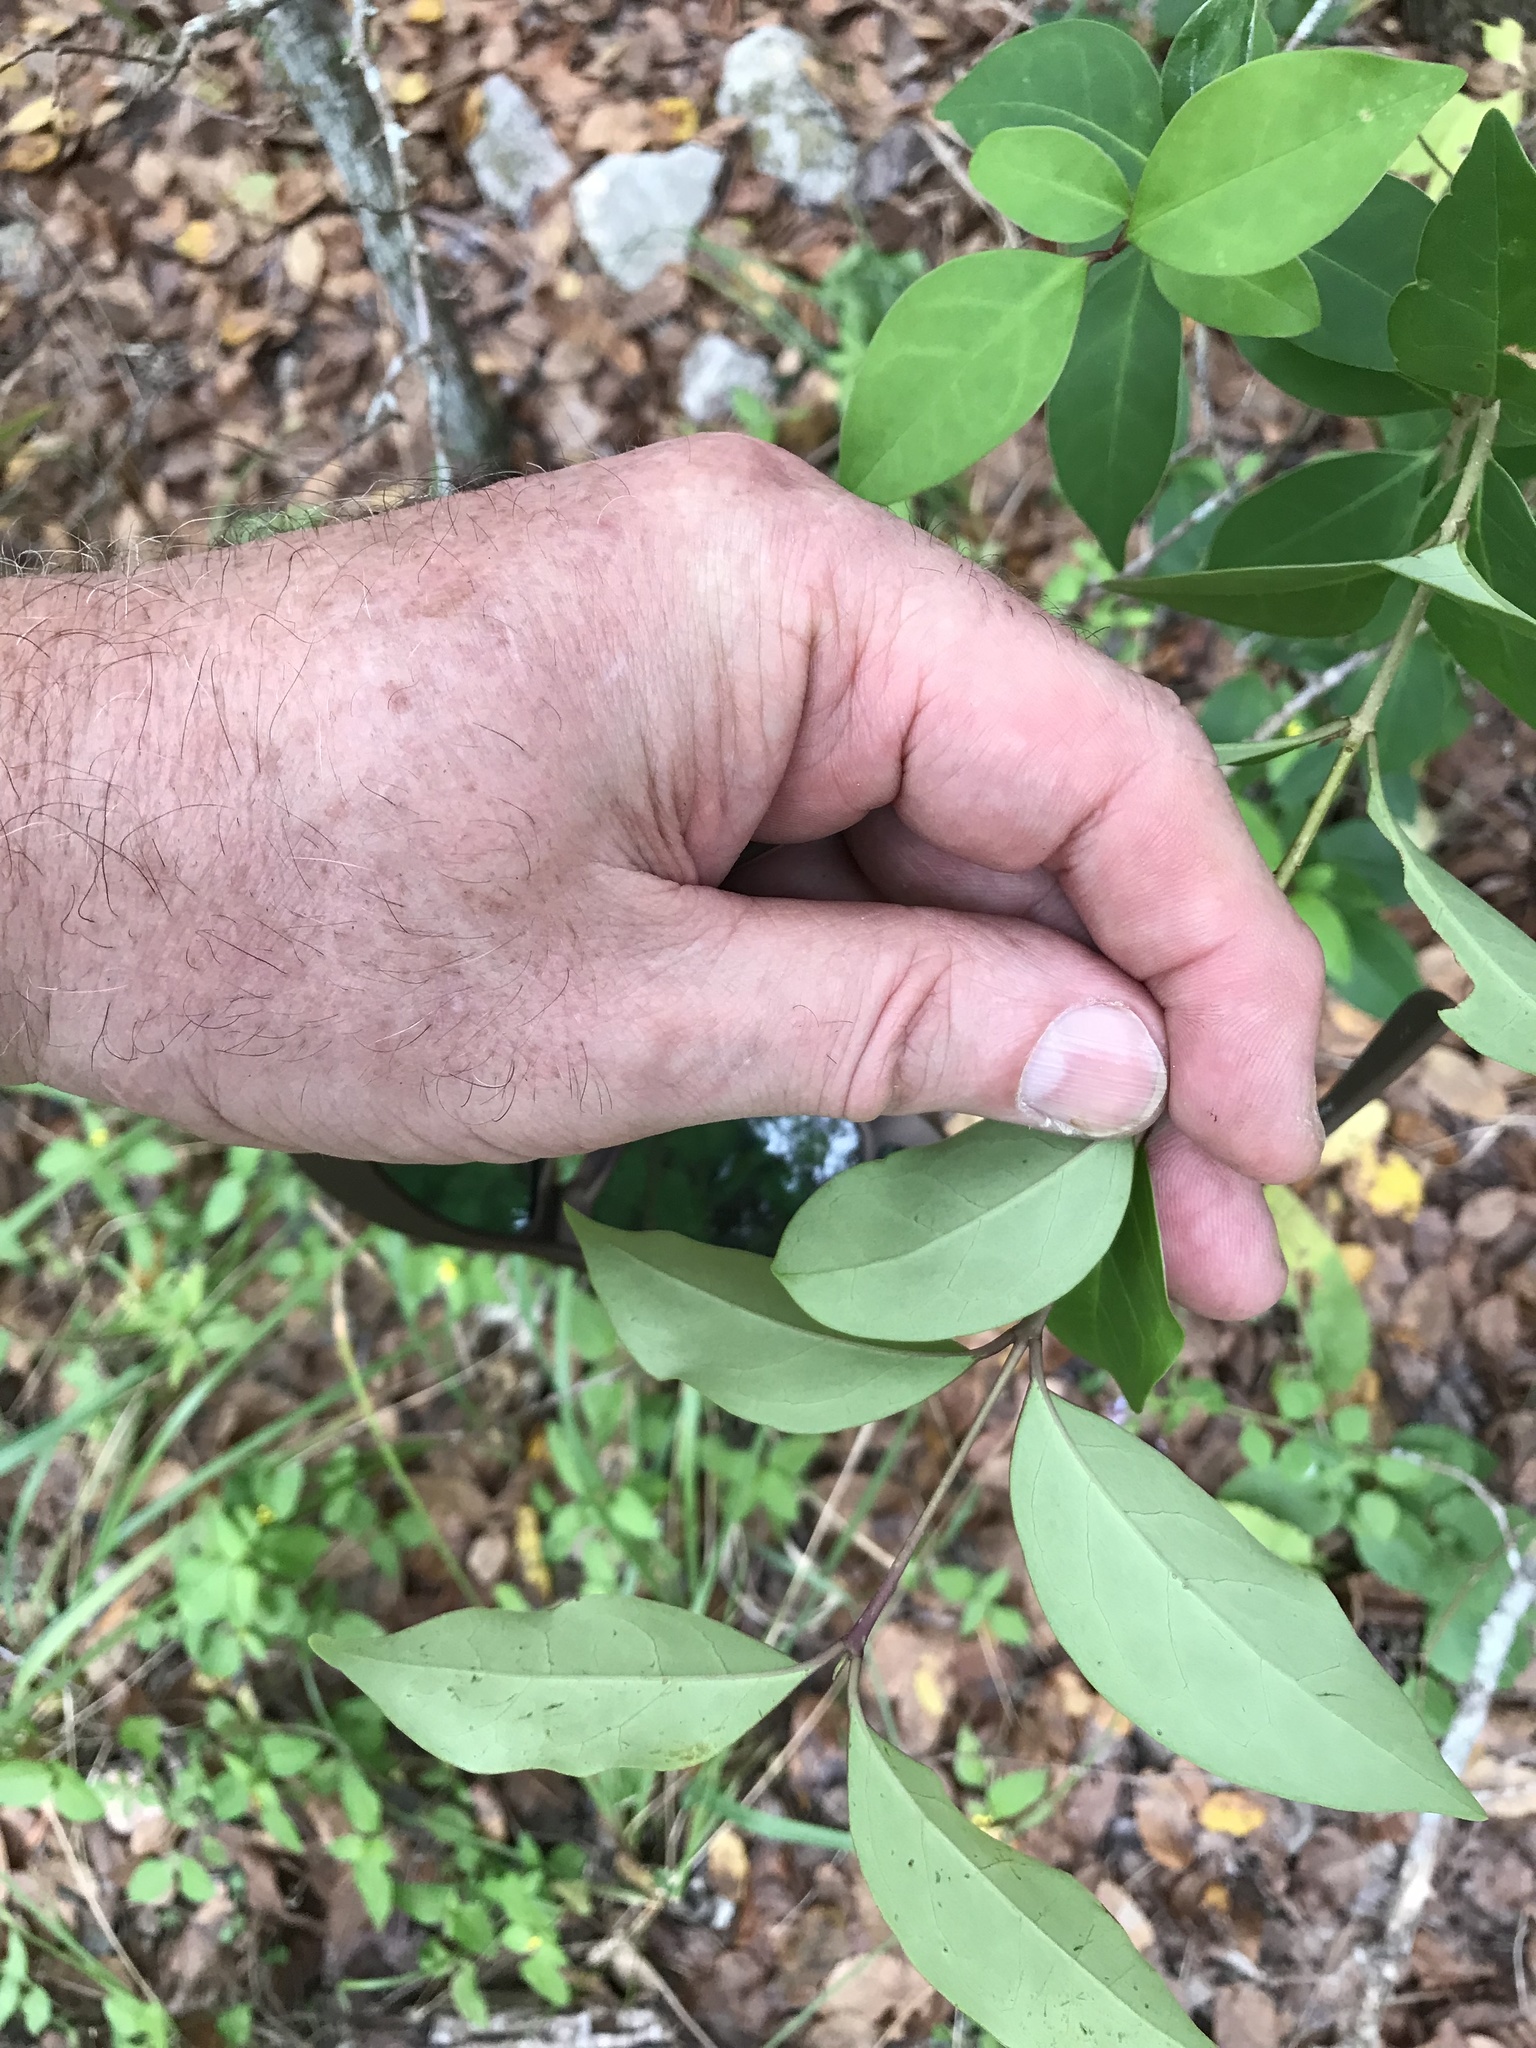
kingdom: Plantae
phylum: Tracheophyta
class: Magnoliopsida
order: Lamiales
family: Oleaceae
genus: Ligustrum
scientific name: Ligustrum lucidum
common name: Glossy privet
